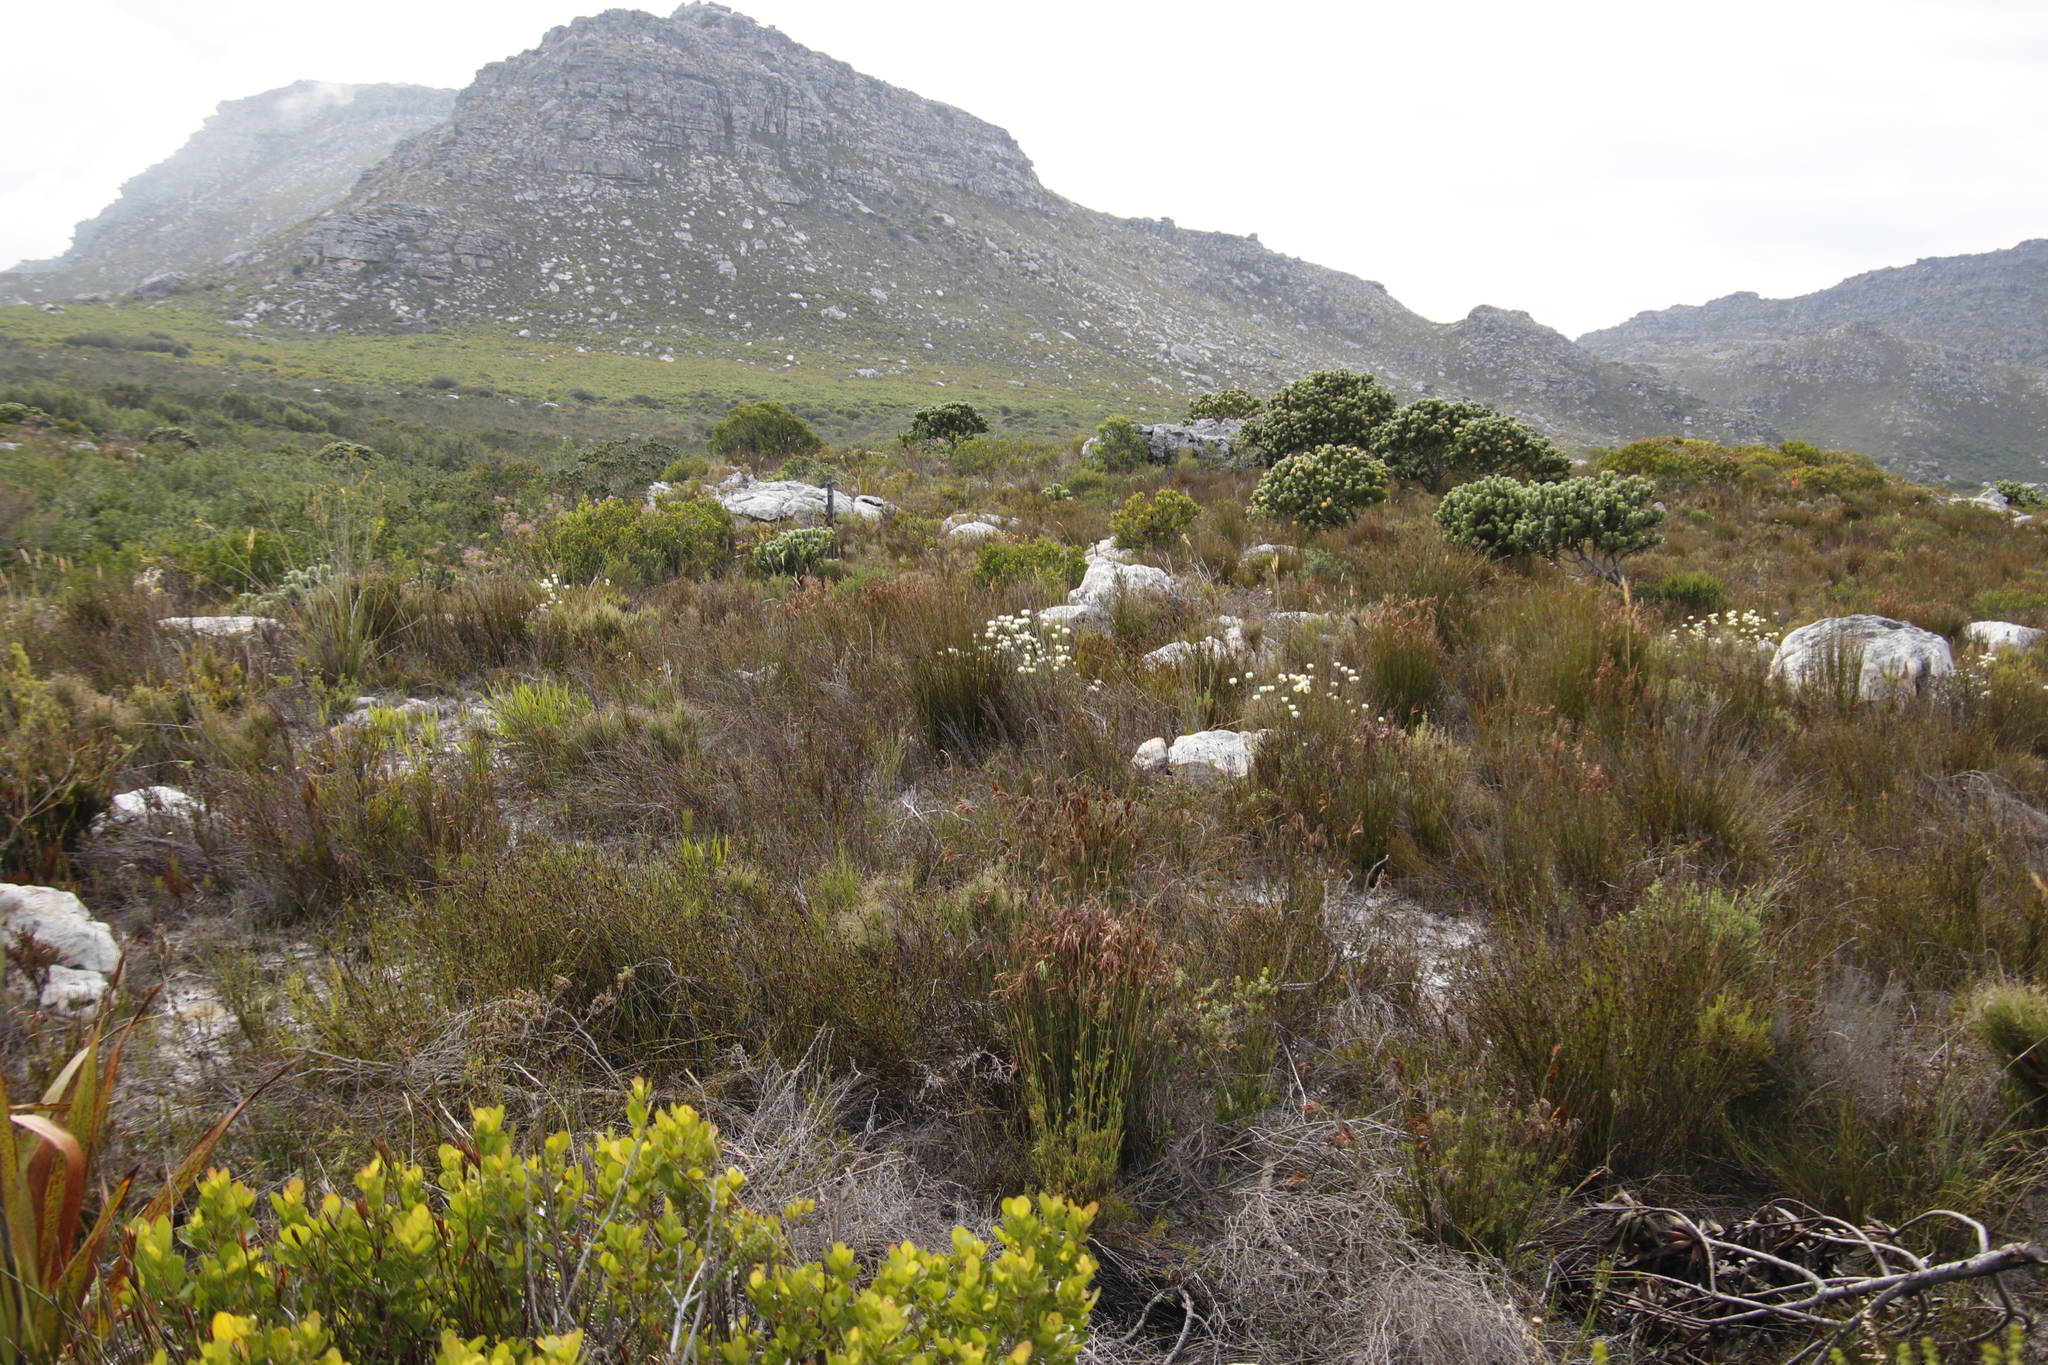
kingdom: Plantae
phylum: Tracheophyta
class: Magnoliopsida
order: Asterales
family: Asteraceae
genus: Edmondia
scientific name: Edmondia sesamoides
